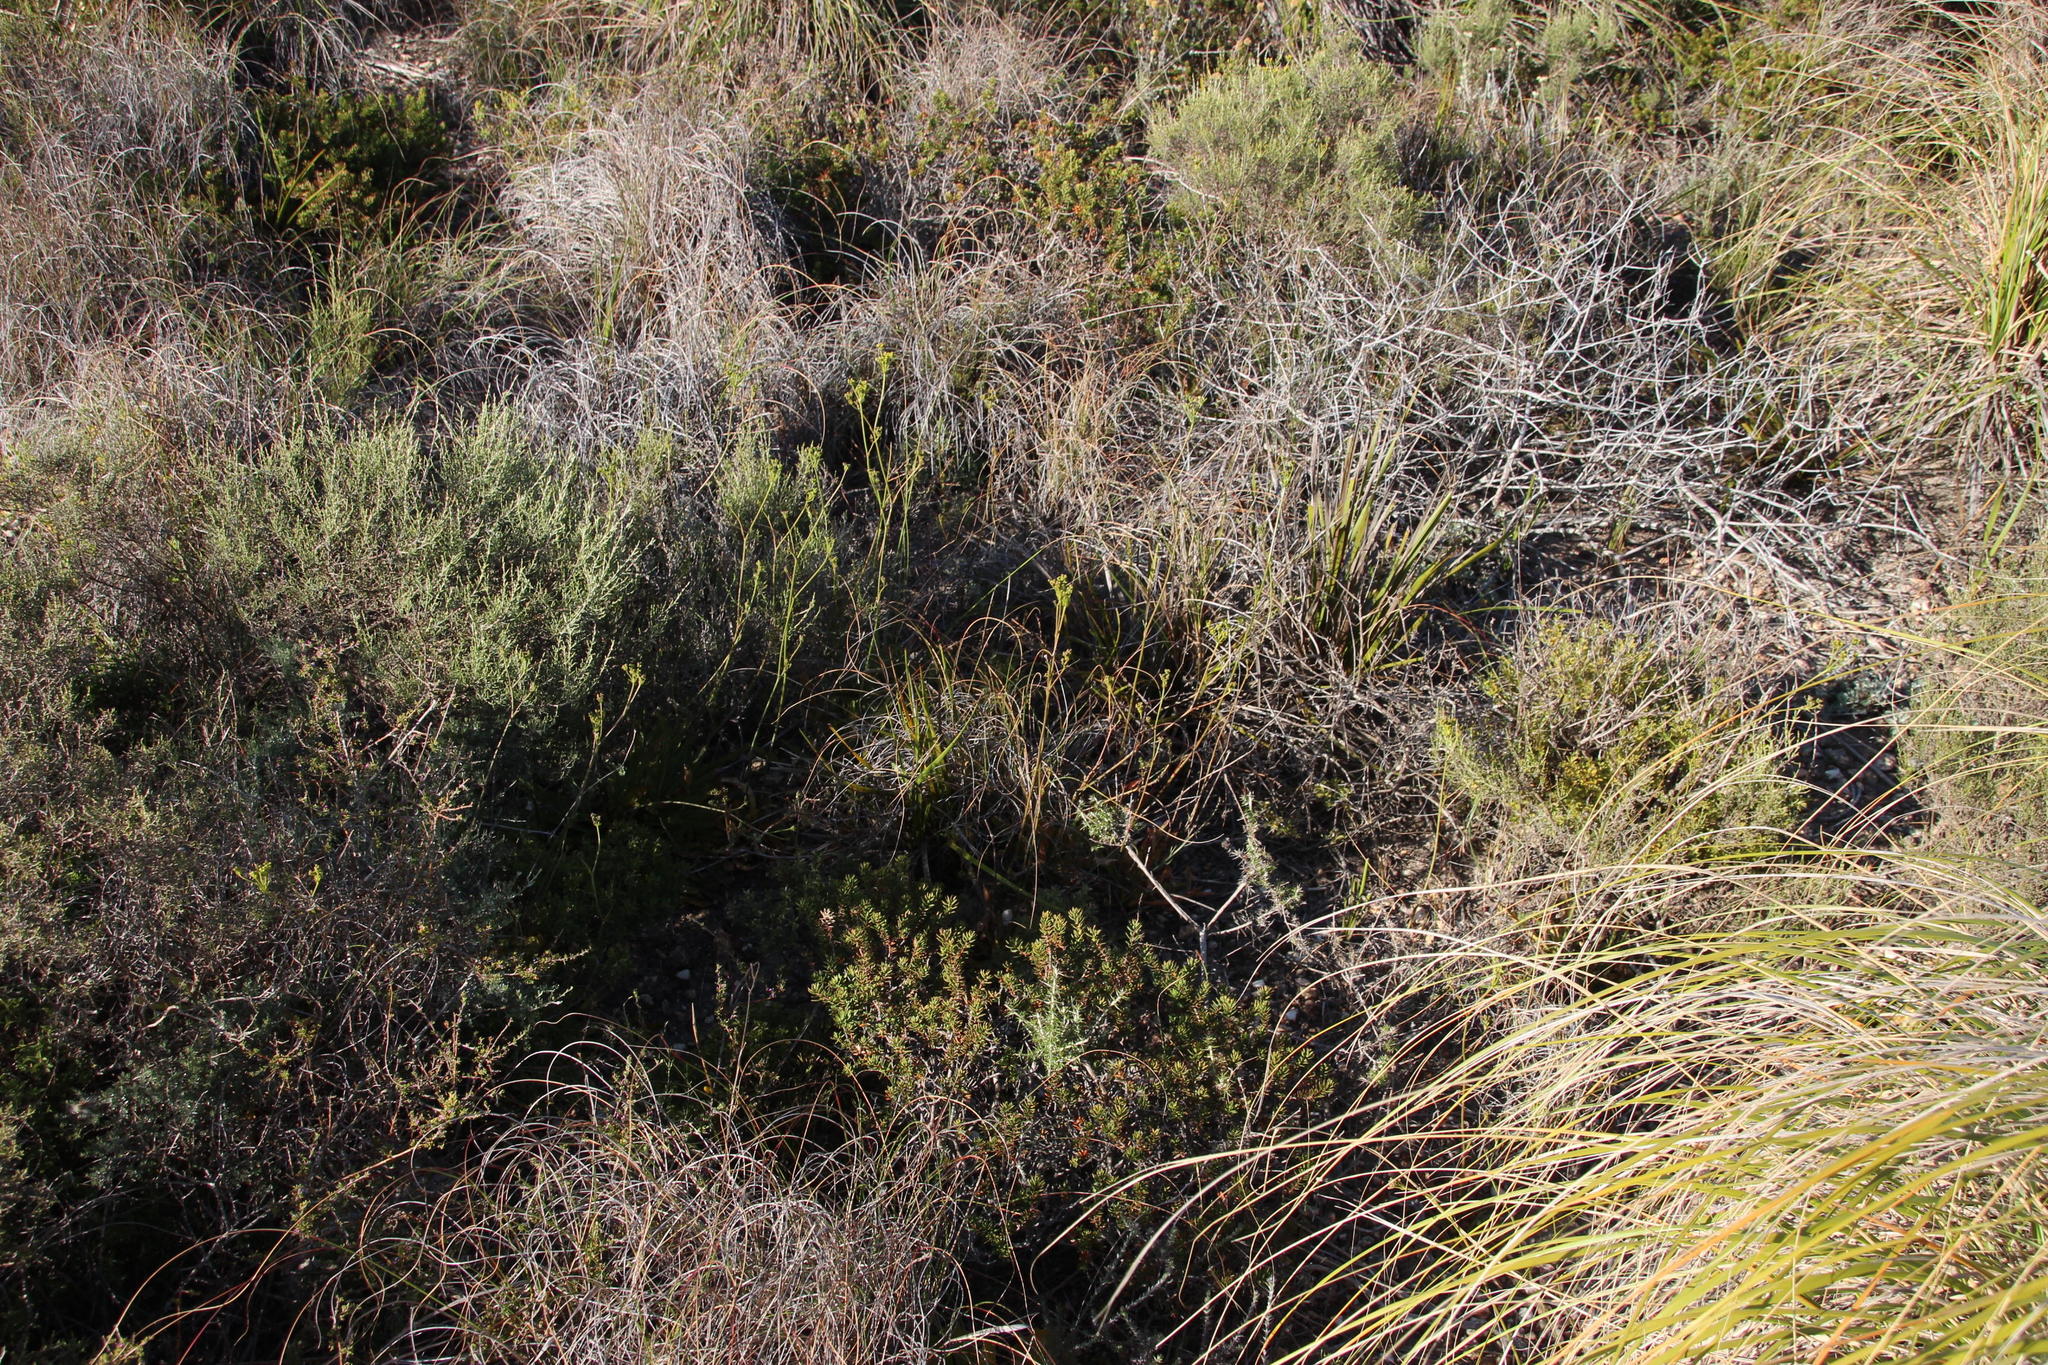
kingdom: Plantae
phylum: Tracheophyta
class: Magnoliopsida
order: Apiales
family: Apiaceae
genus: Lichtensteinia
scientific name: Lichtensteinia trifida
